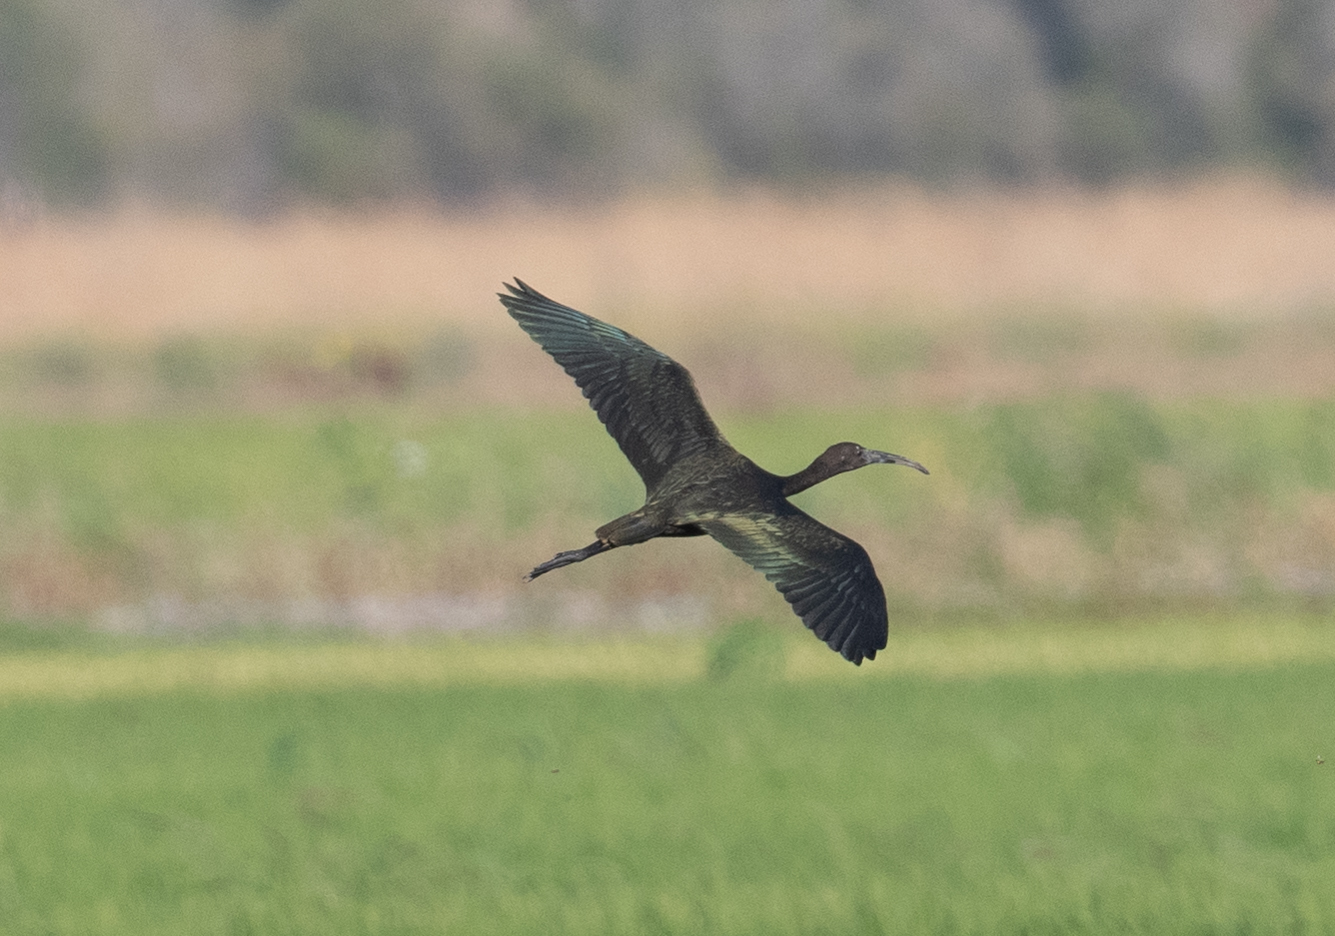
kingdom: Animalia
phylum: Chordata
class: Aves
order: Pelecaniformes
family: Threskiornithidae
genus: Plegadis
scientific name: Plegadis chihi
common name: White-faced ibis
